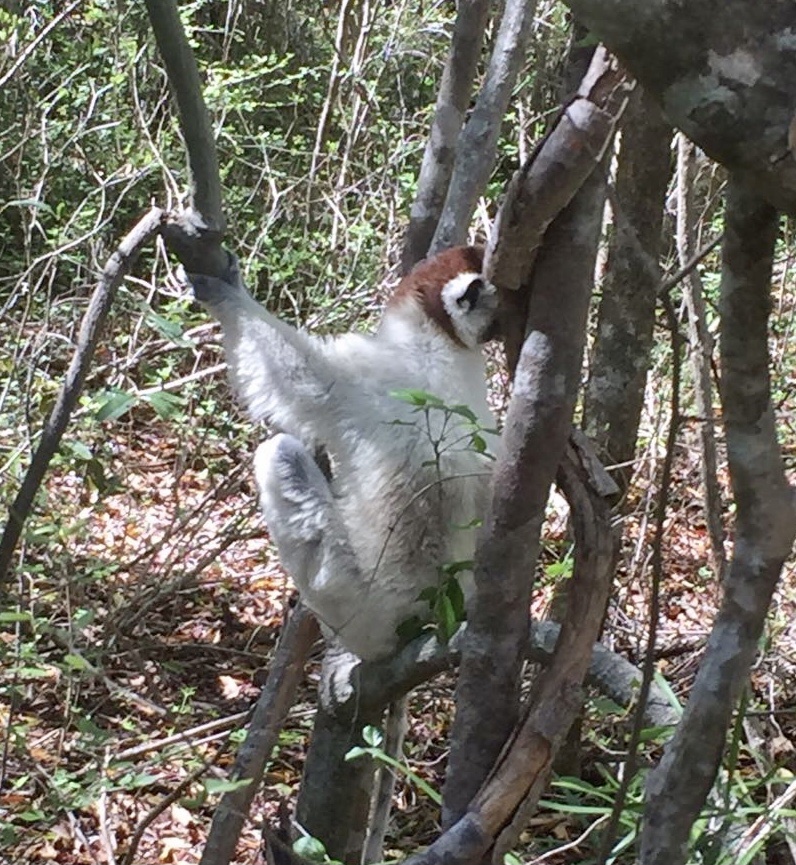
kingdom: Animalia
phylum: Chordata
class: Mammalia
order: Primates
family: Indriidae
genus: Propithecus
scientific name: Propithecus verreauxi
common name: Verreaux's sifaka
